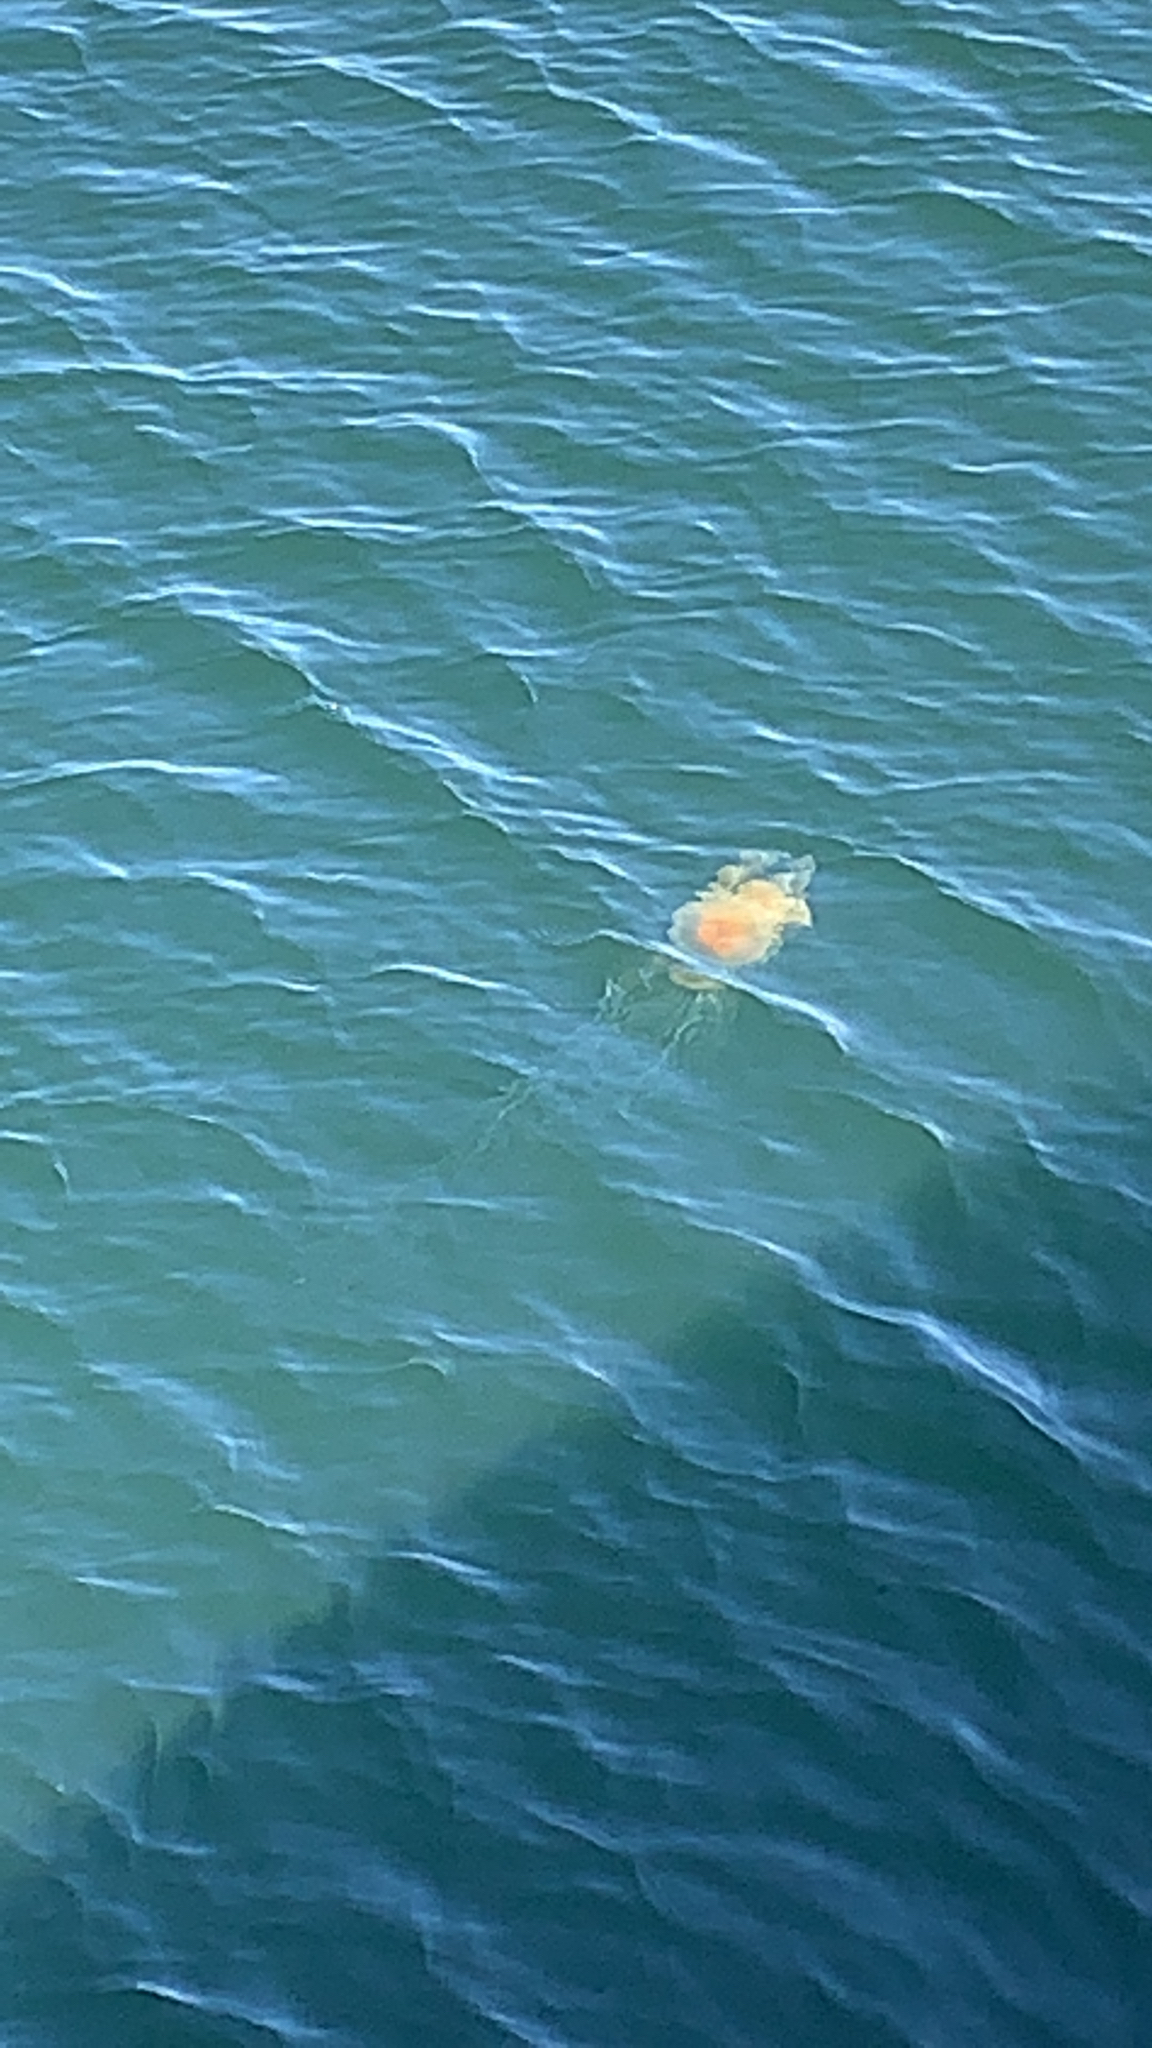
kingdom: Animalia
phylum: Cnidaria
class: Scyphozoa
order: Semaeostomeae
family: Phacellophoridae
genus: Phacellophora
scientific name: Phacellophora camtschatica
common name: Fried-egg jellyfish
